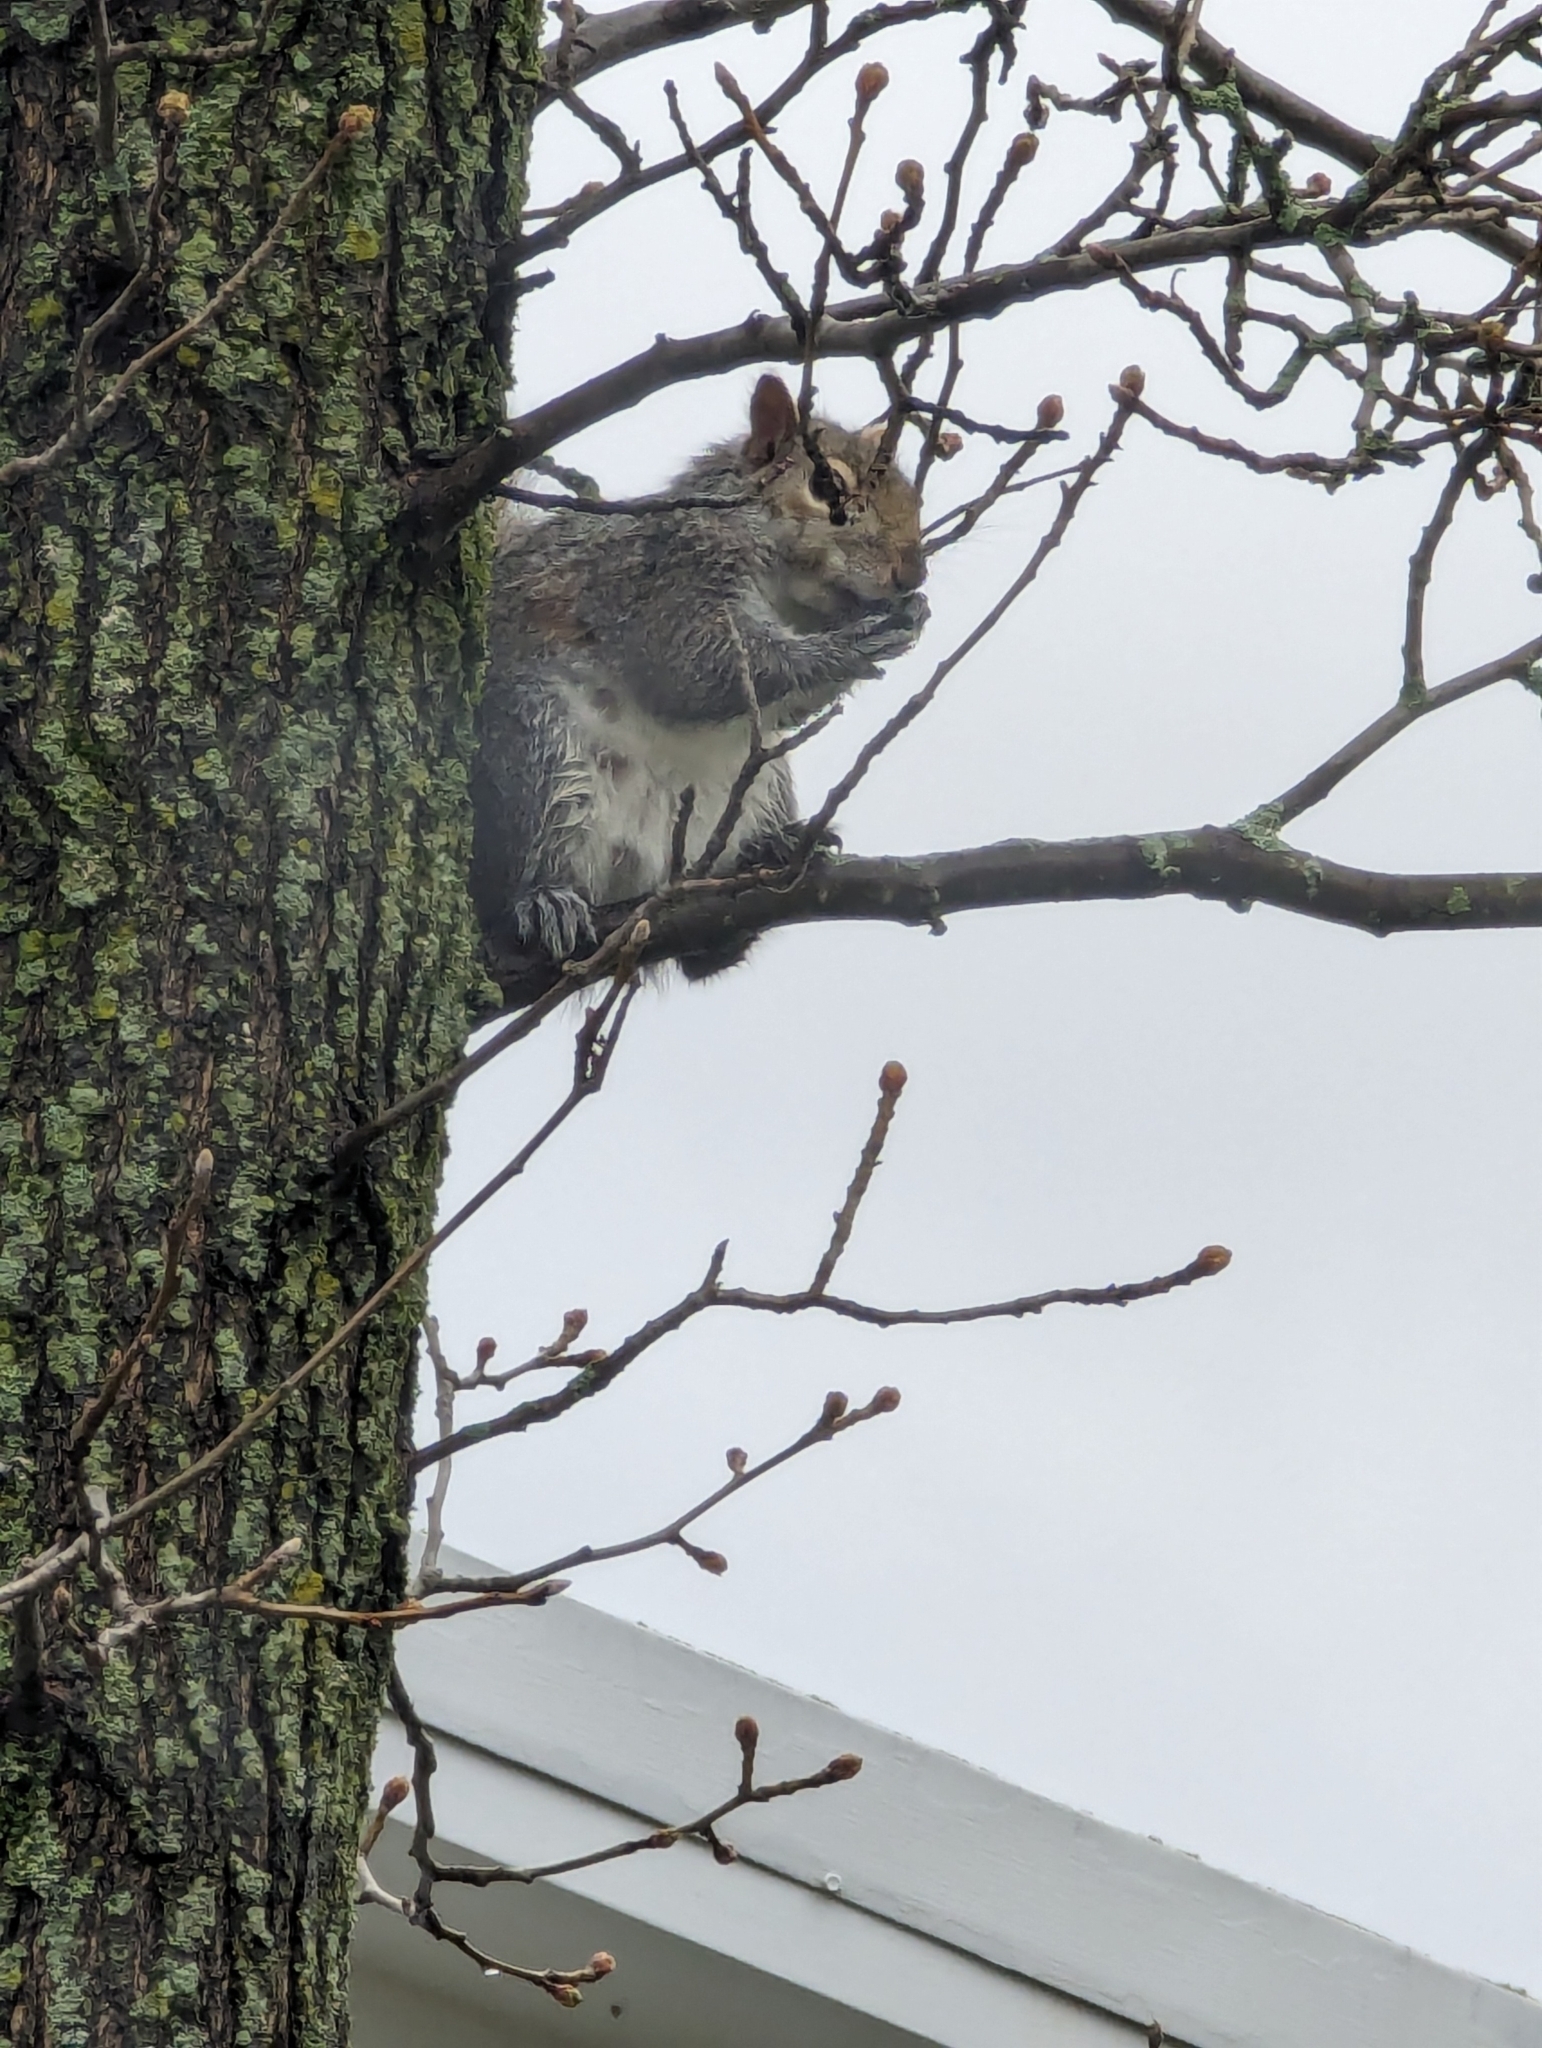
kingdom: Animalia
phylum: Chordata
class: Mammalia
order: Rodentia
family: Sciuridae
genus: Sciurus
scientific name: Sciurus carolinensis
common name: Eastern gray squirrel
